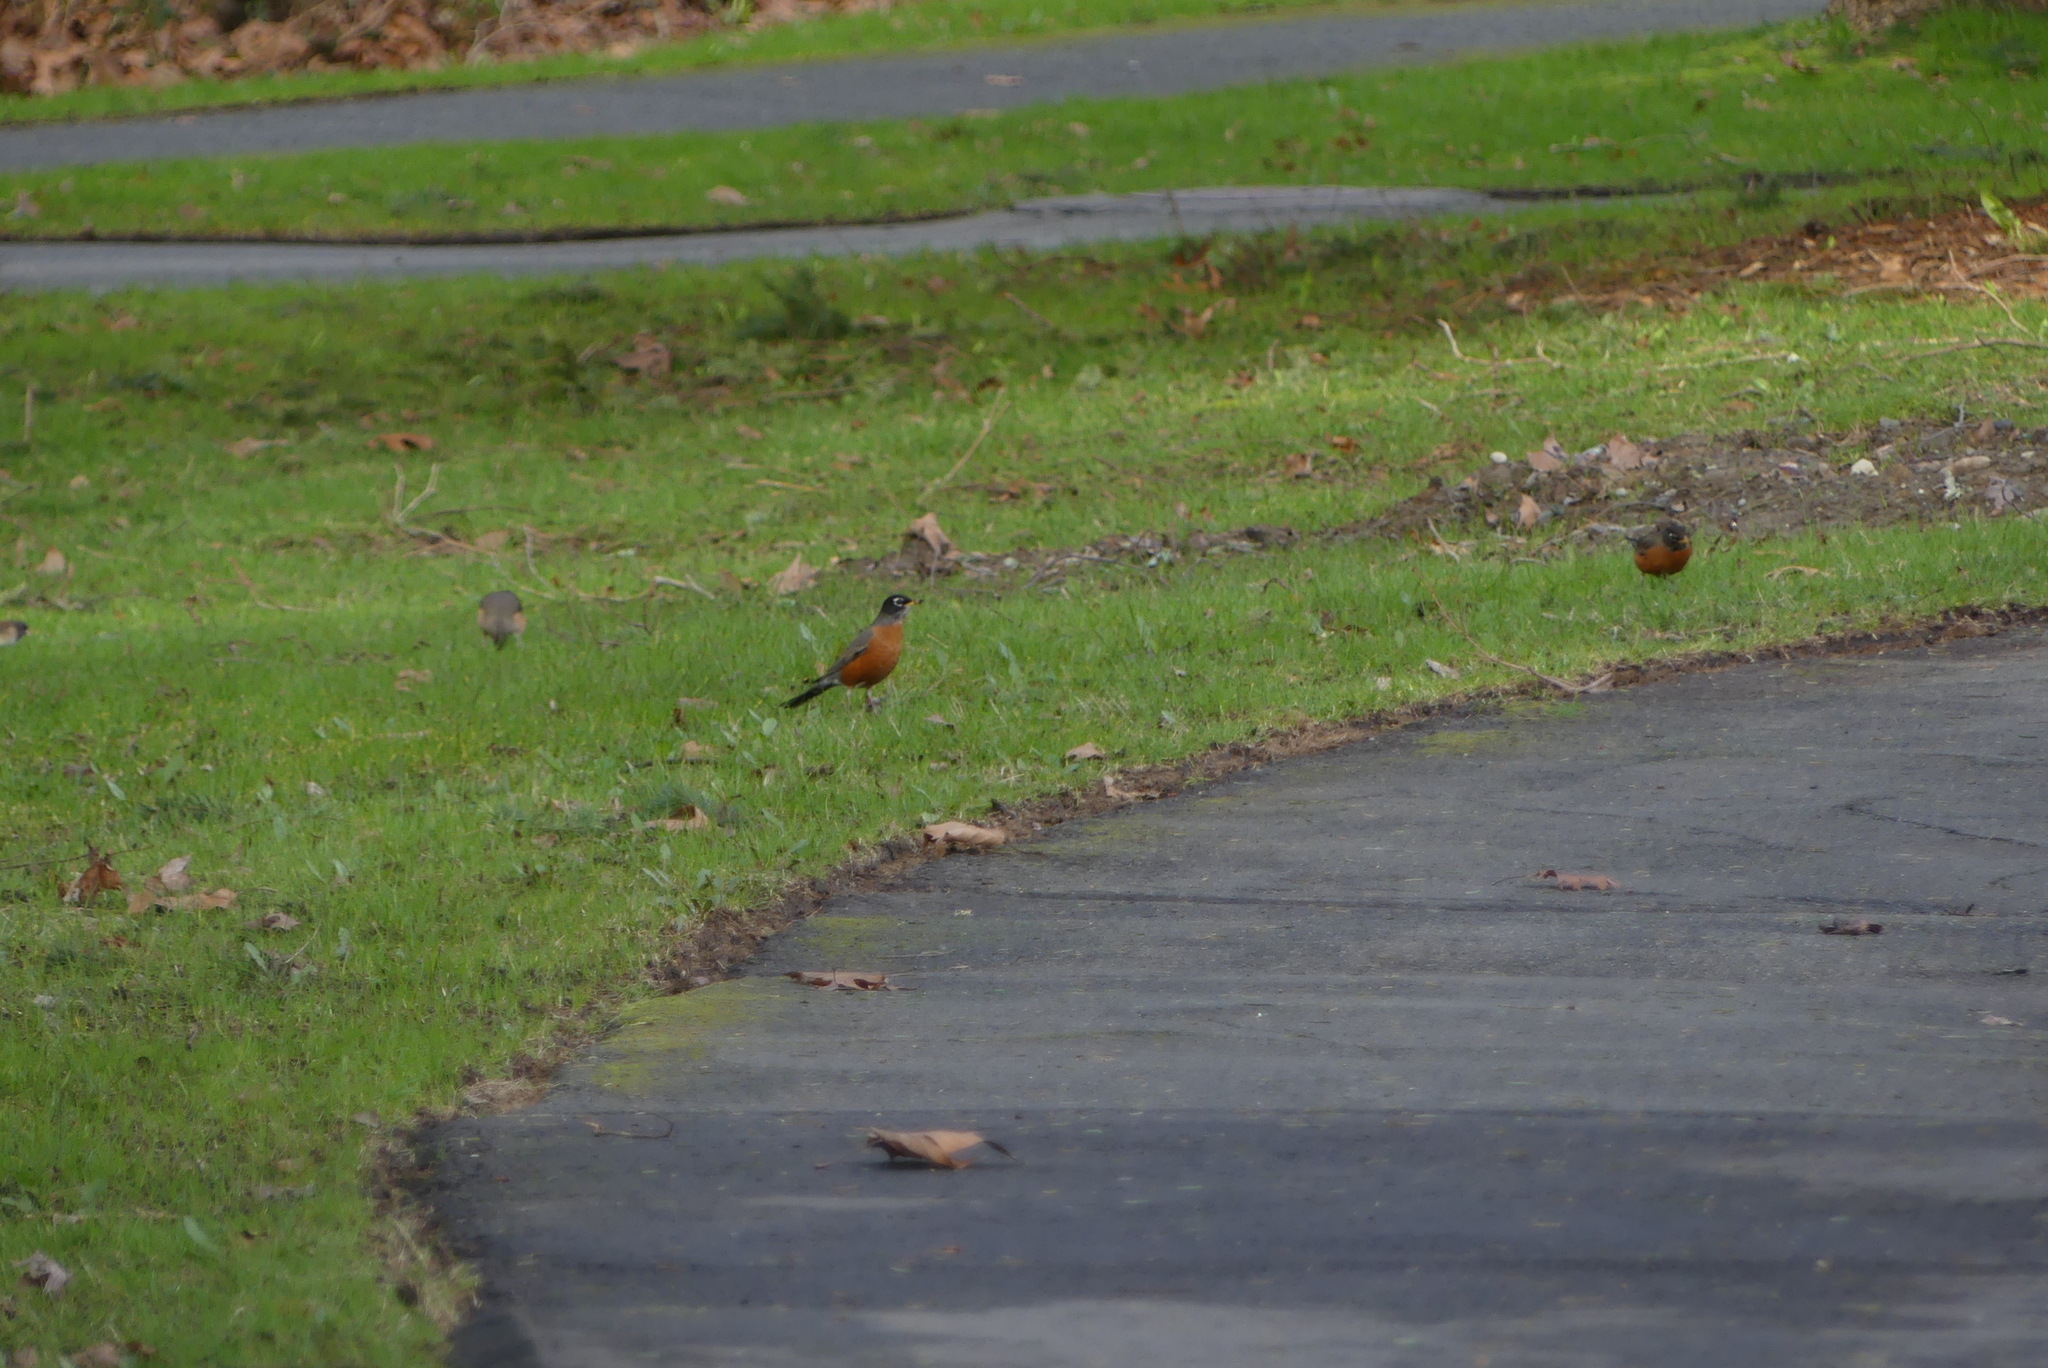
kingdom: Animalia
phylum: Chordata
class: Aves
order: Passeriformes
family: Turdidae
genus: Turdus
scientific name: Turdus migratorius
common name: American robin
